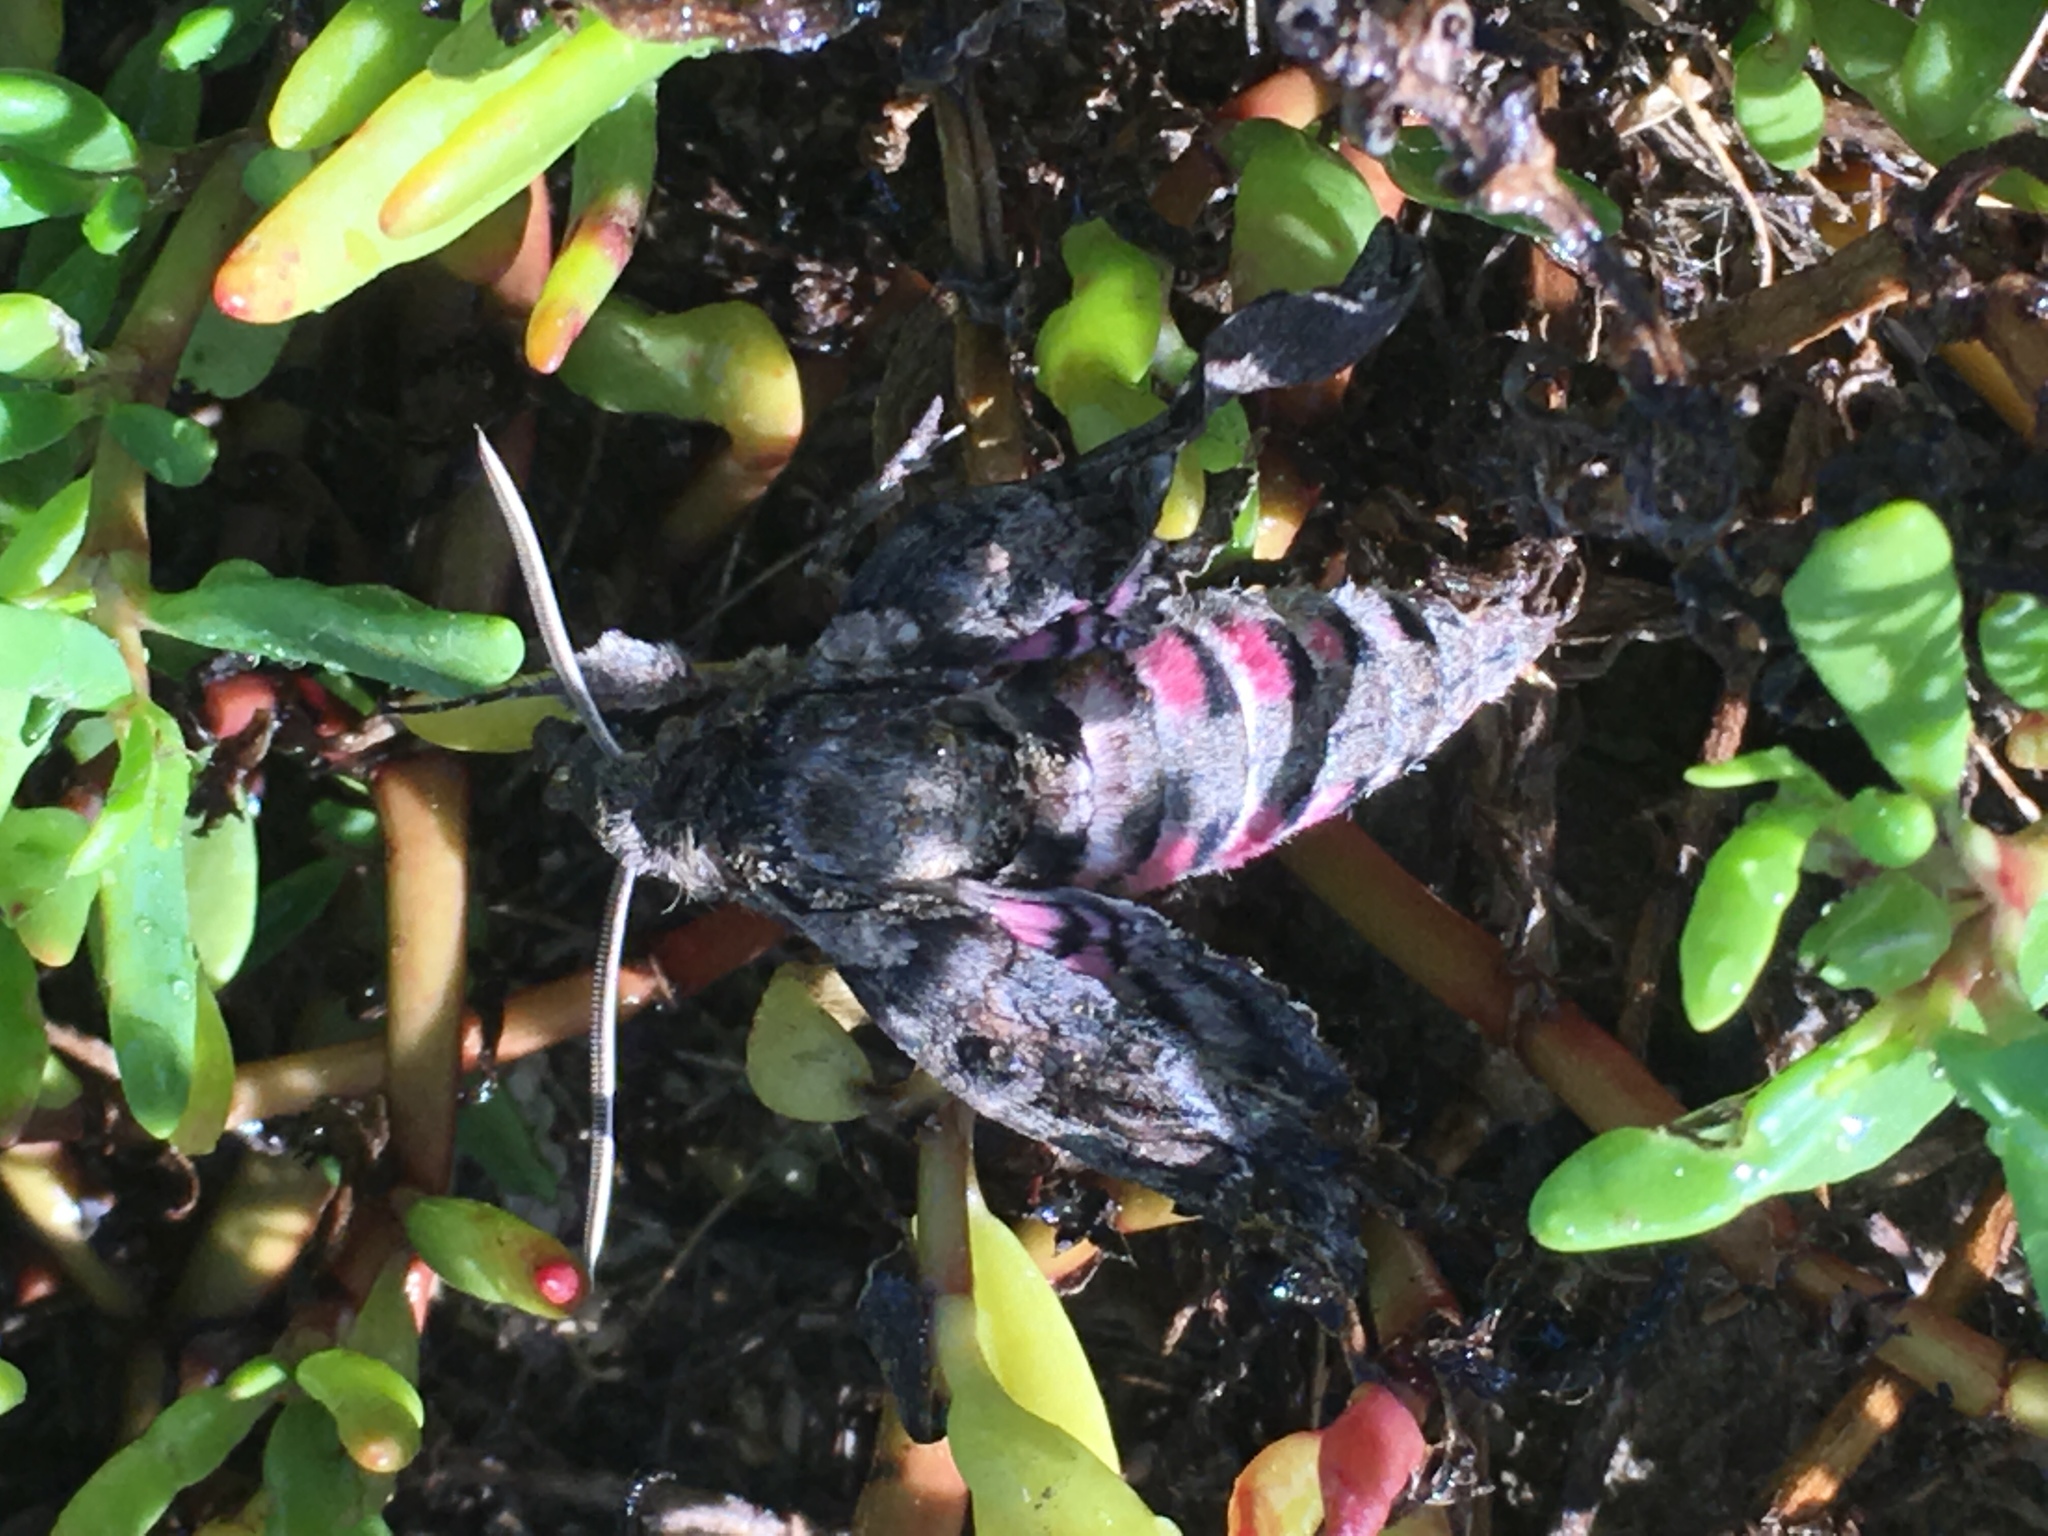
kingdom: Animalia
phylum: Arthropoda
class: Insecta
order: Lepidoptera
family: Sphingidae
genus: Agrius
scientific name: Agrius cingulata
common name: Pink-spotted hawkmoth
